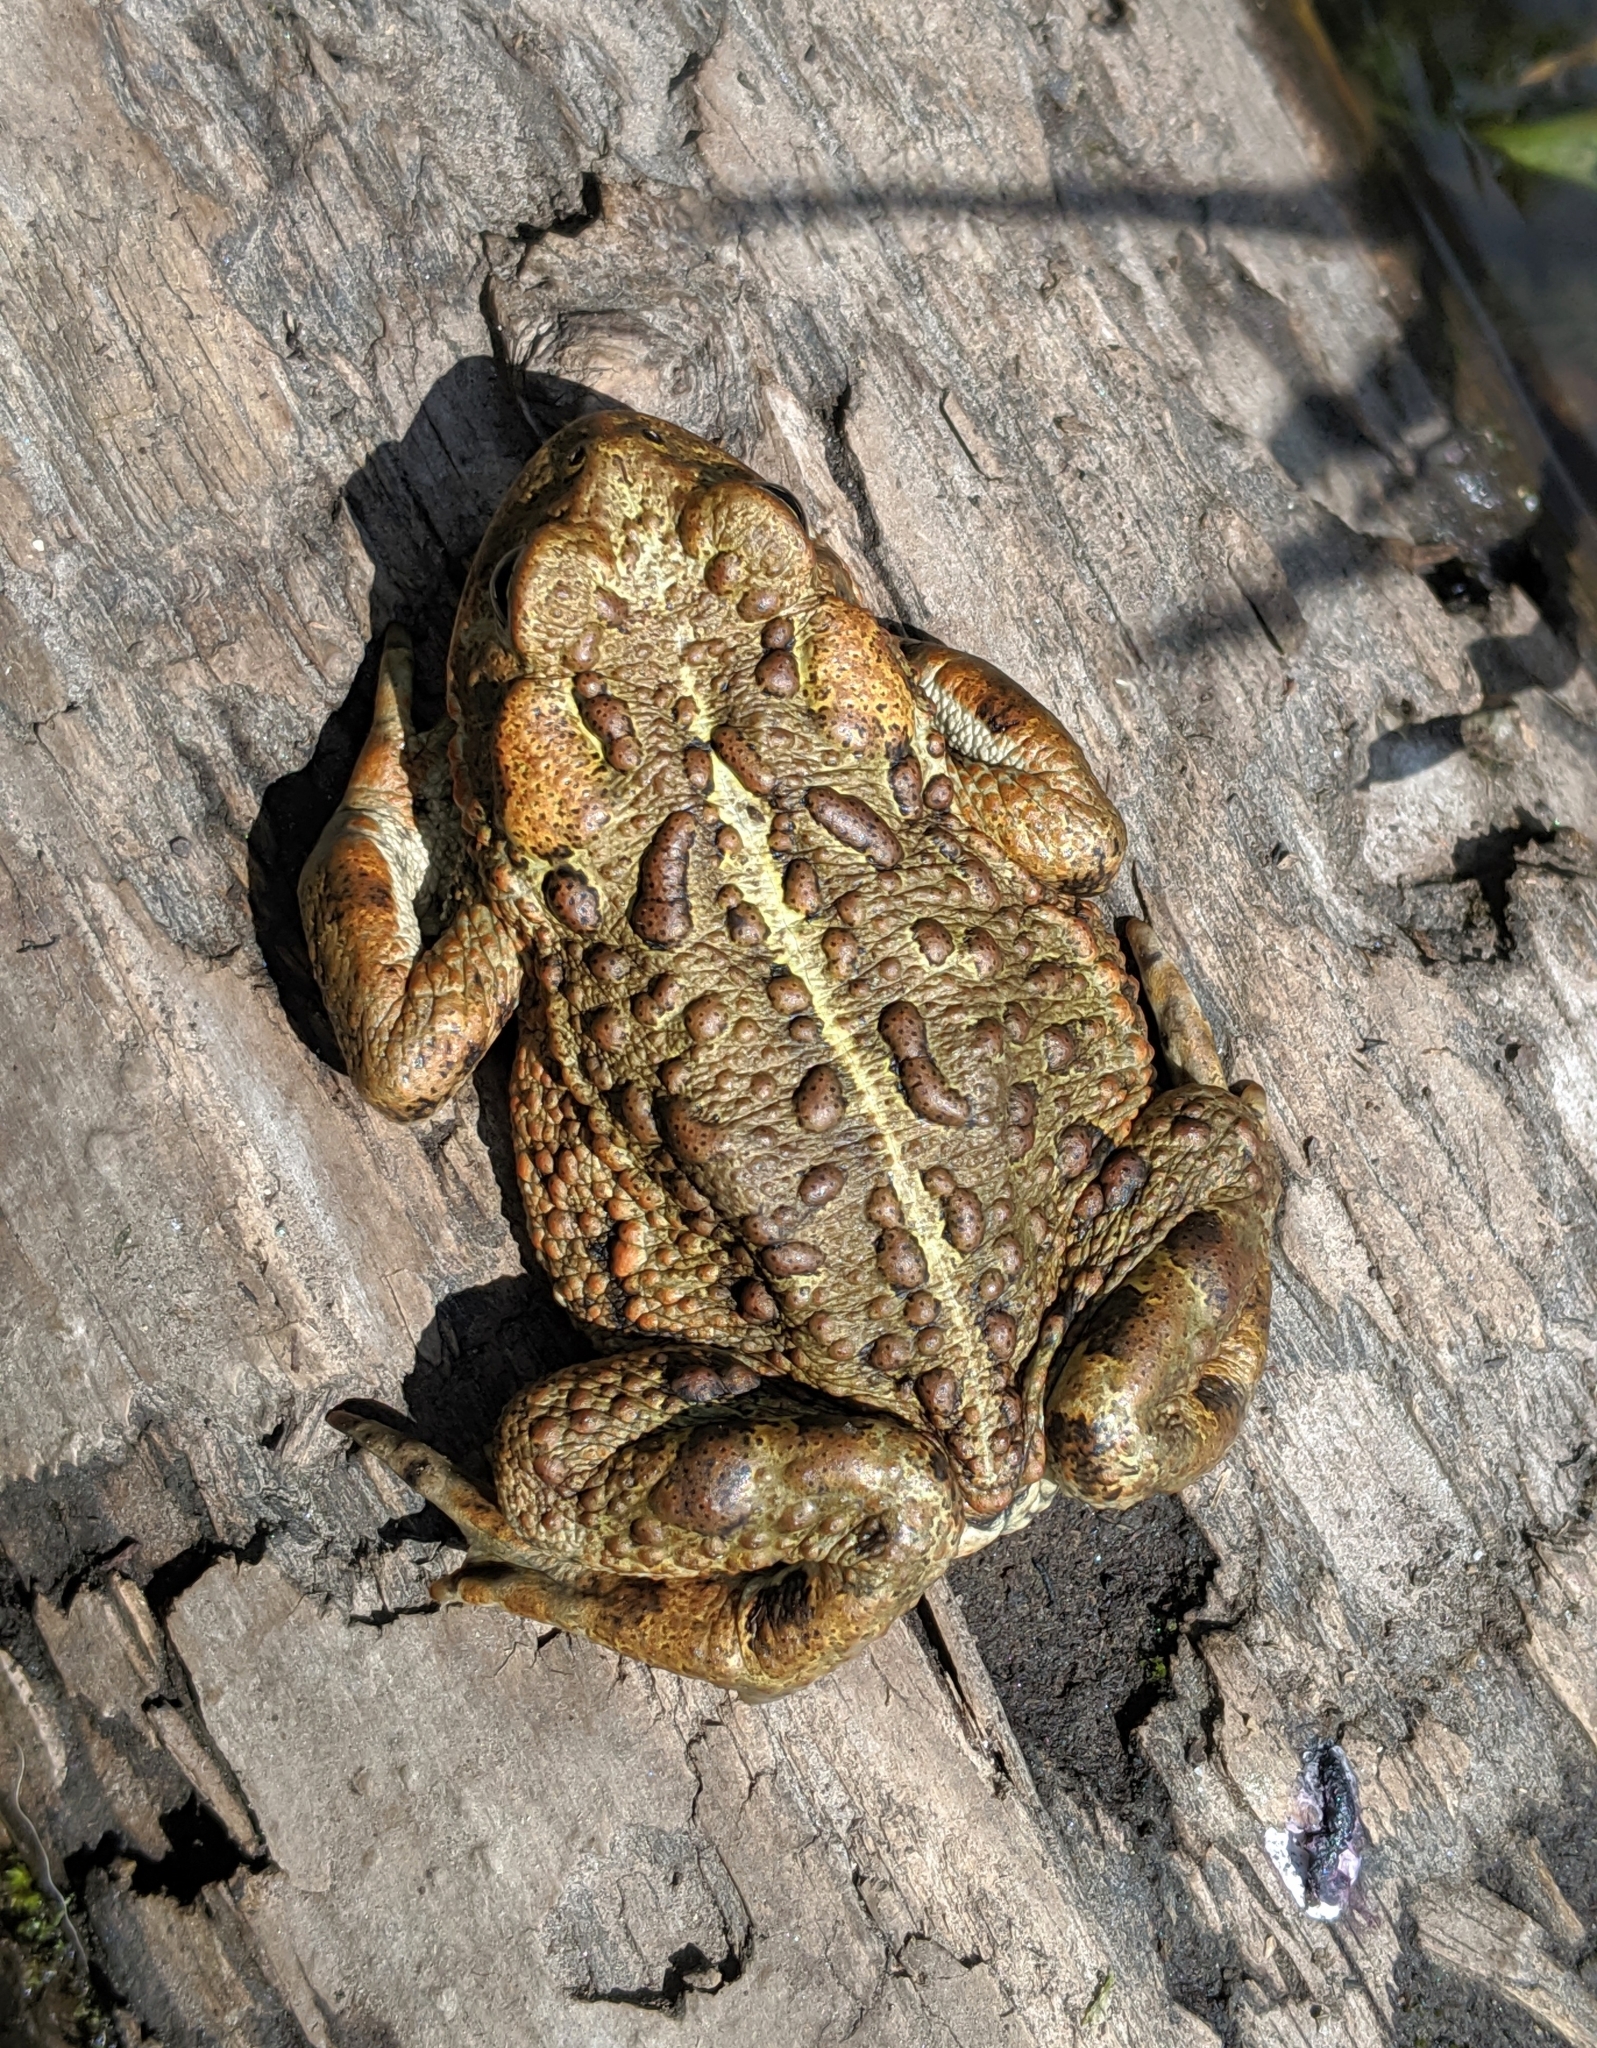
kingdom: Animalia
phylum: Chordata
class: Amphibia
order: Anura
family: Bufonidae
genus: Anaxyrus
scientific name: Anaxyrus boreas
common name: Western toad
